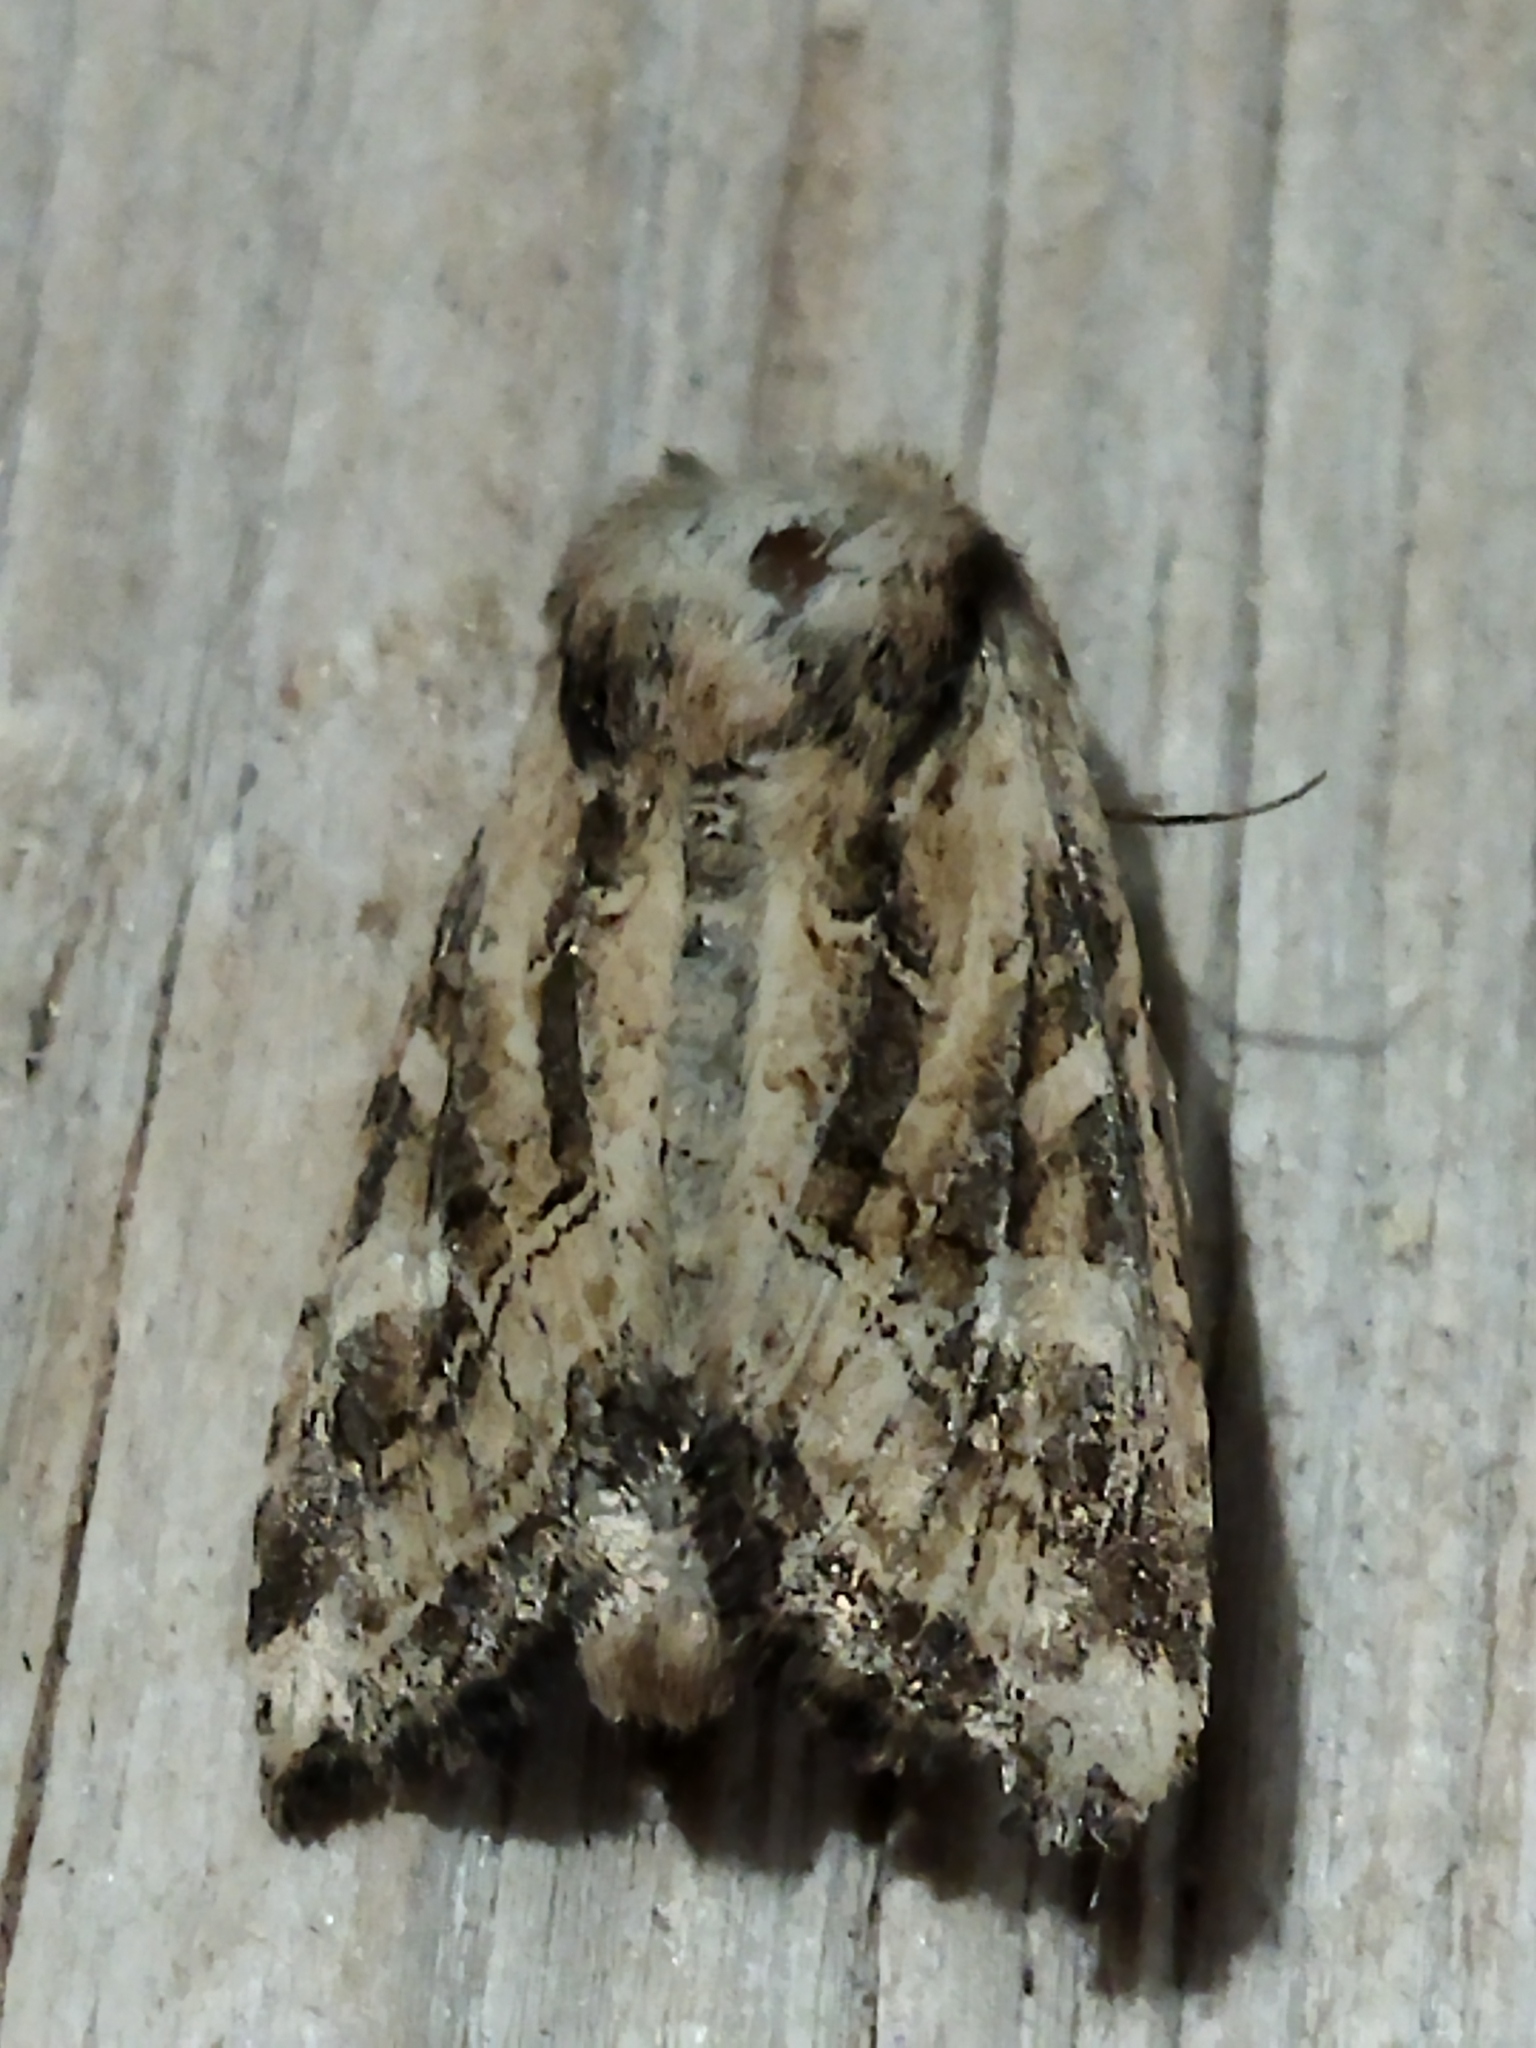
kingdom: Animalia
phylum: Arthropoda
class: Insecta
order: Lepidoptera
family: Noctuidae
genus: Luperina
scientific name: Luperina dumerilii
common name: Dumeril's rustic
